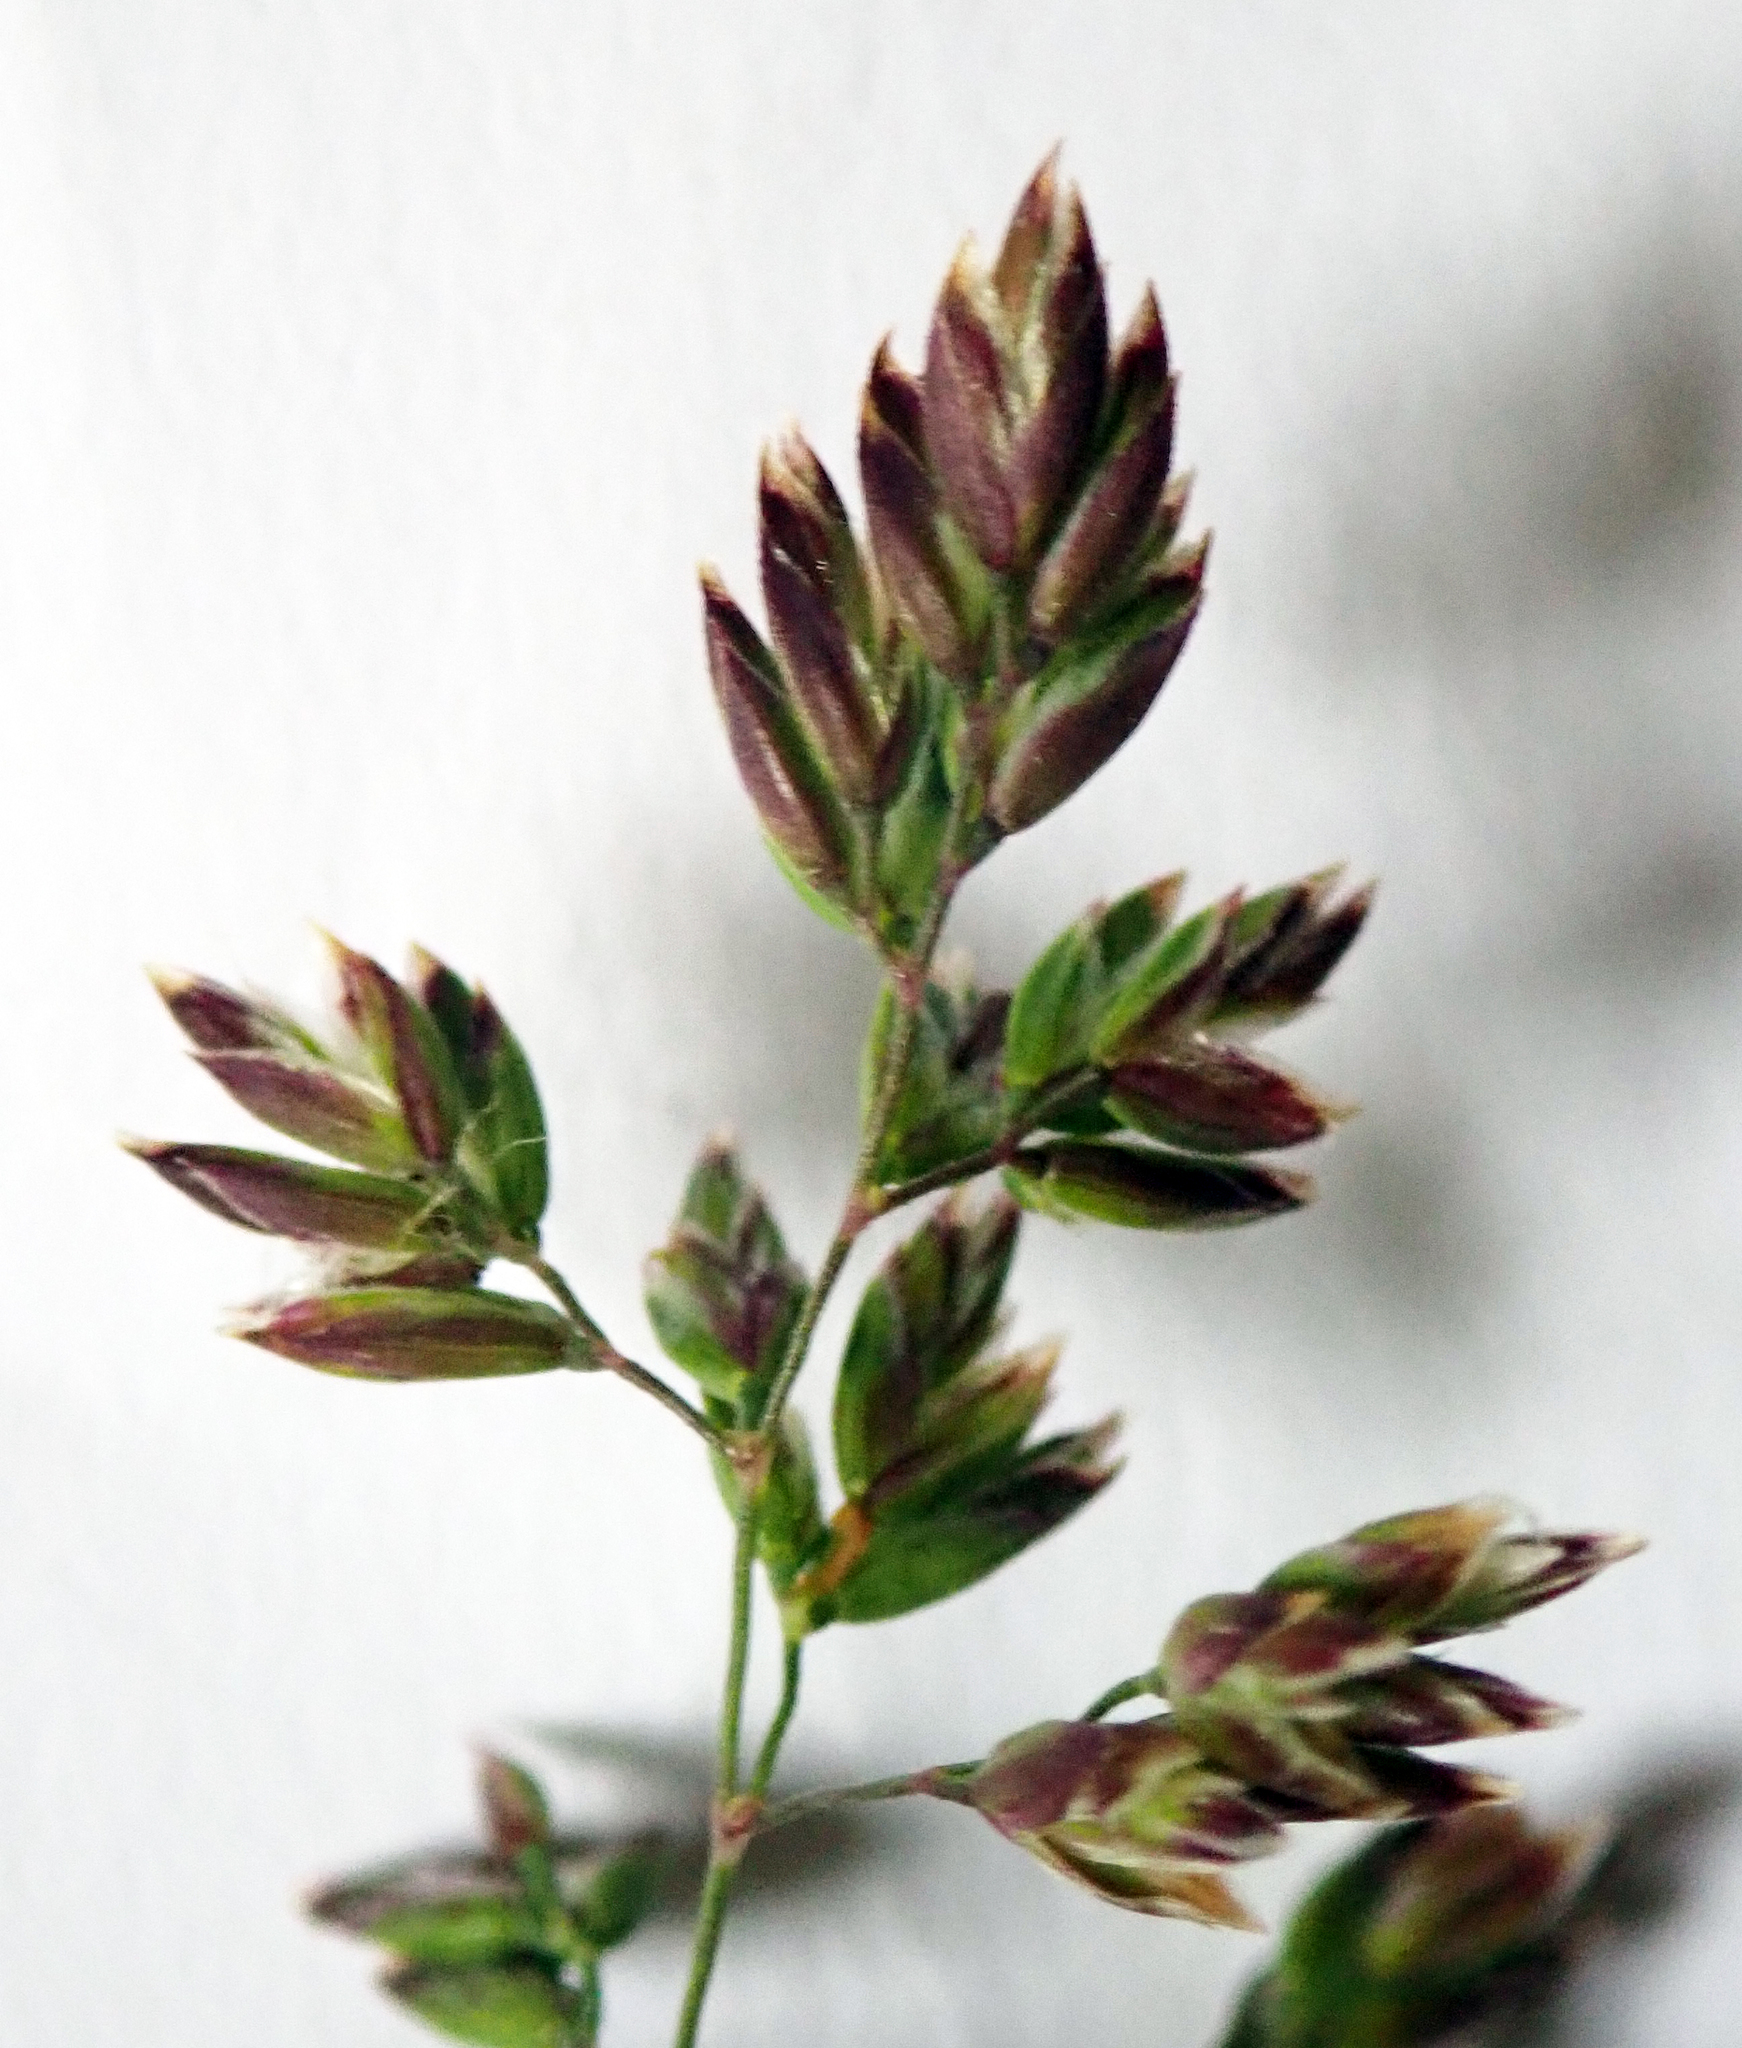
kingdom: Plantae
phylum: Tracheophyta
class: Liliopsida
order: Poales
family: Poaceae
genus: Poa
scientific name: Poa pratensis
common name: Kentucky bluegrass
